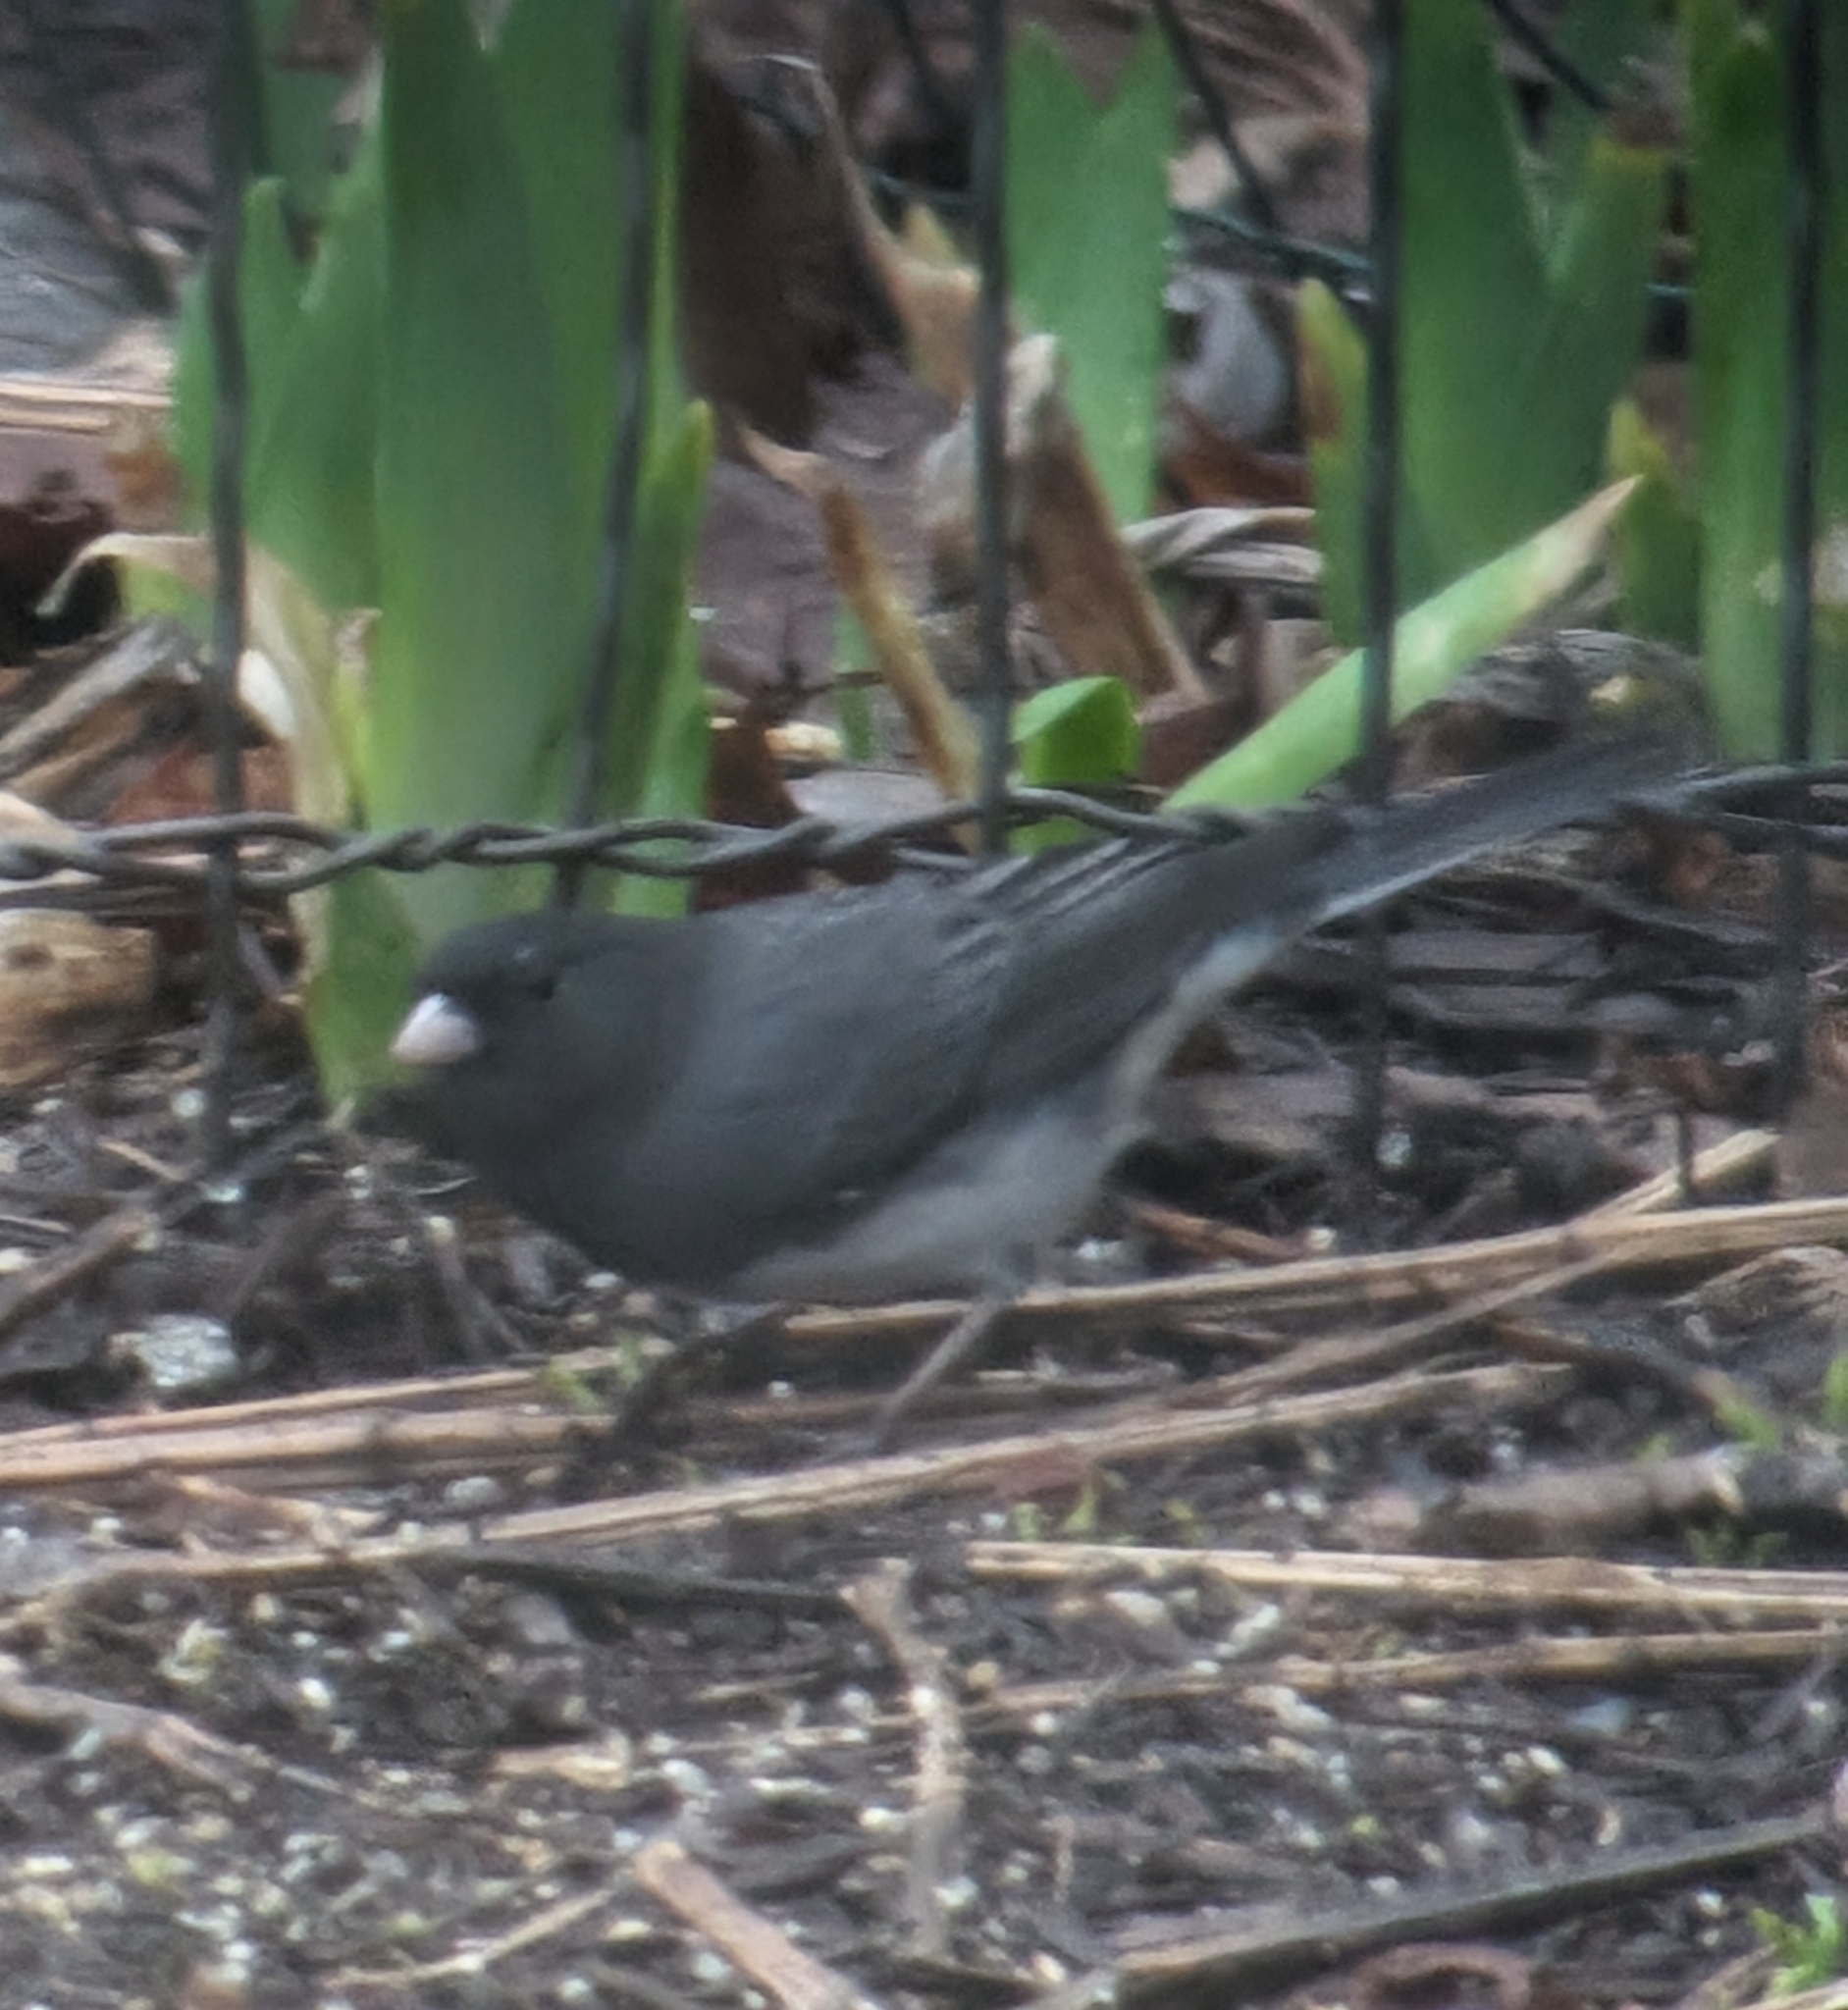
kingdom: Animalia
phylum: Chordata
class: Aves
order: Passeriformes
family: Passerellidae
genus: Junco
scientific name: Junco hyemalis
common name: Dark-eyed junco
